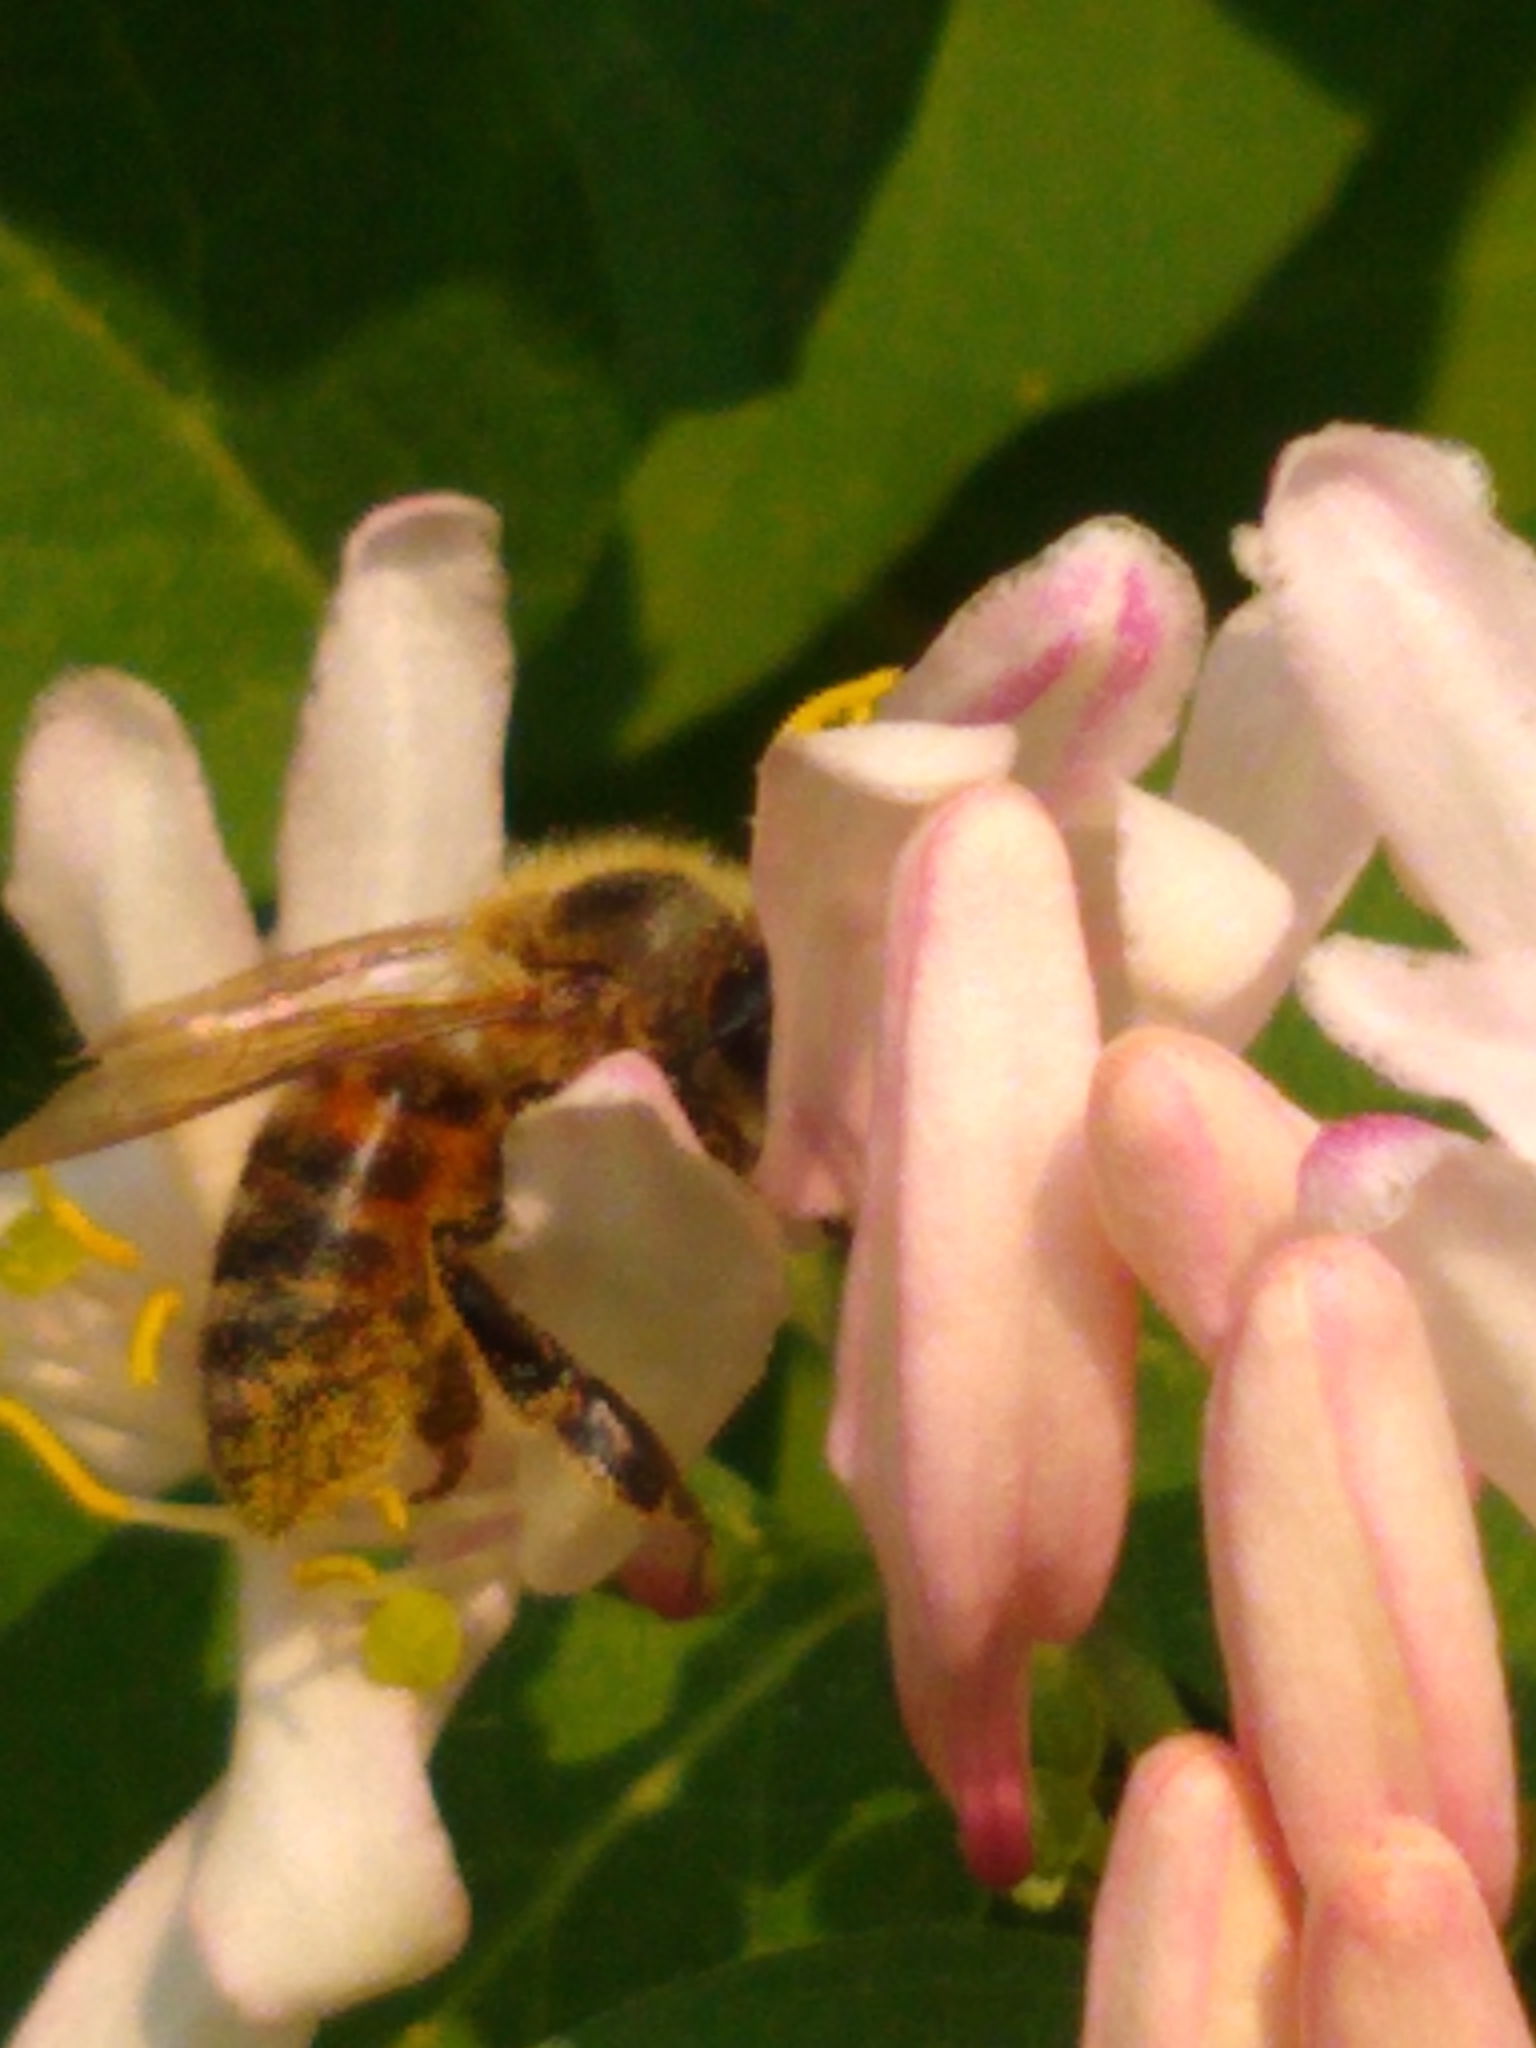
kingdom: Animalia
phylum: Arthropoda
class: Insecta
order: Hymenoptera
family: Apidae
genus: Apis
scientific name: Apis mellifera
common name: Honey bee
